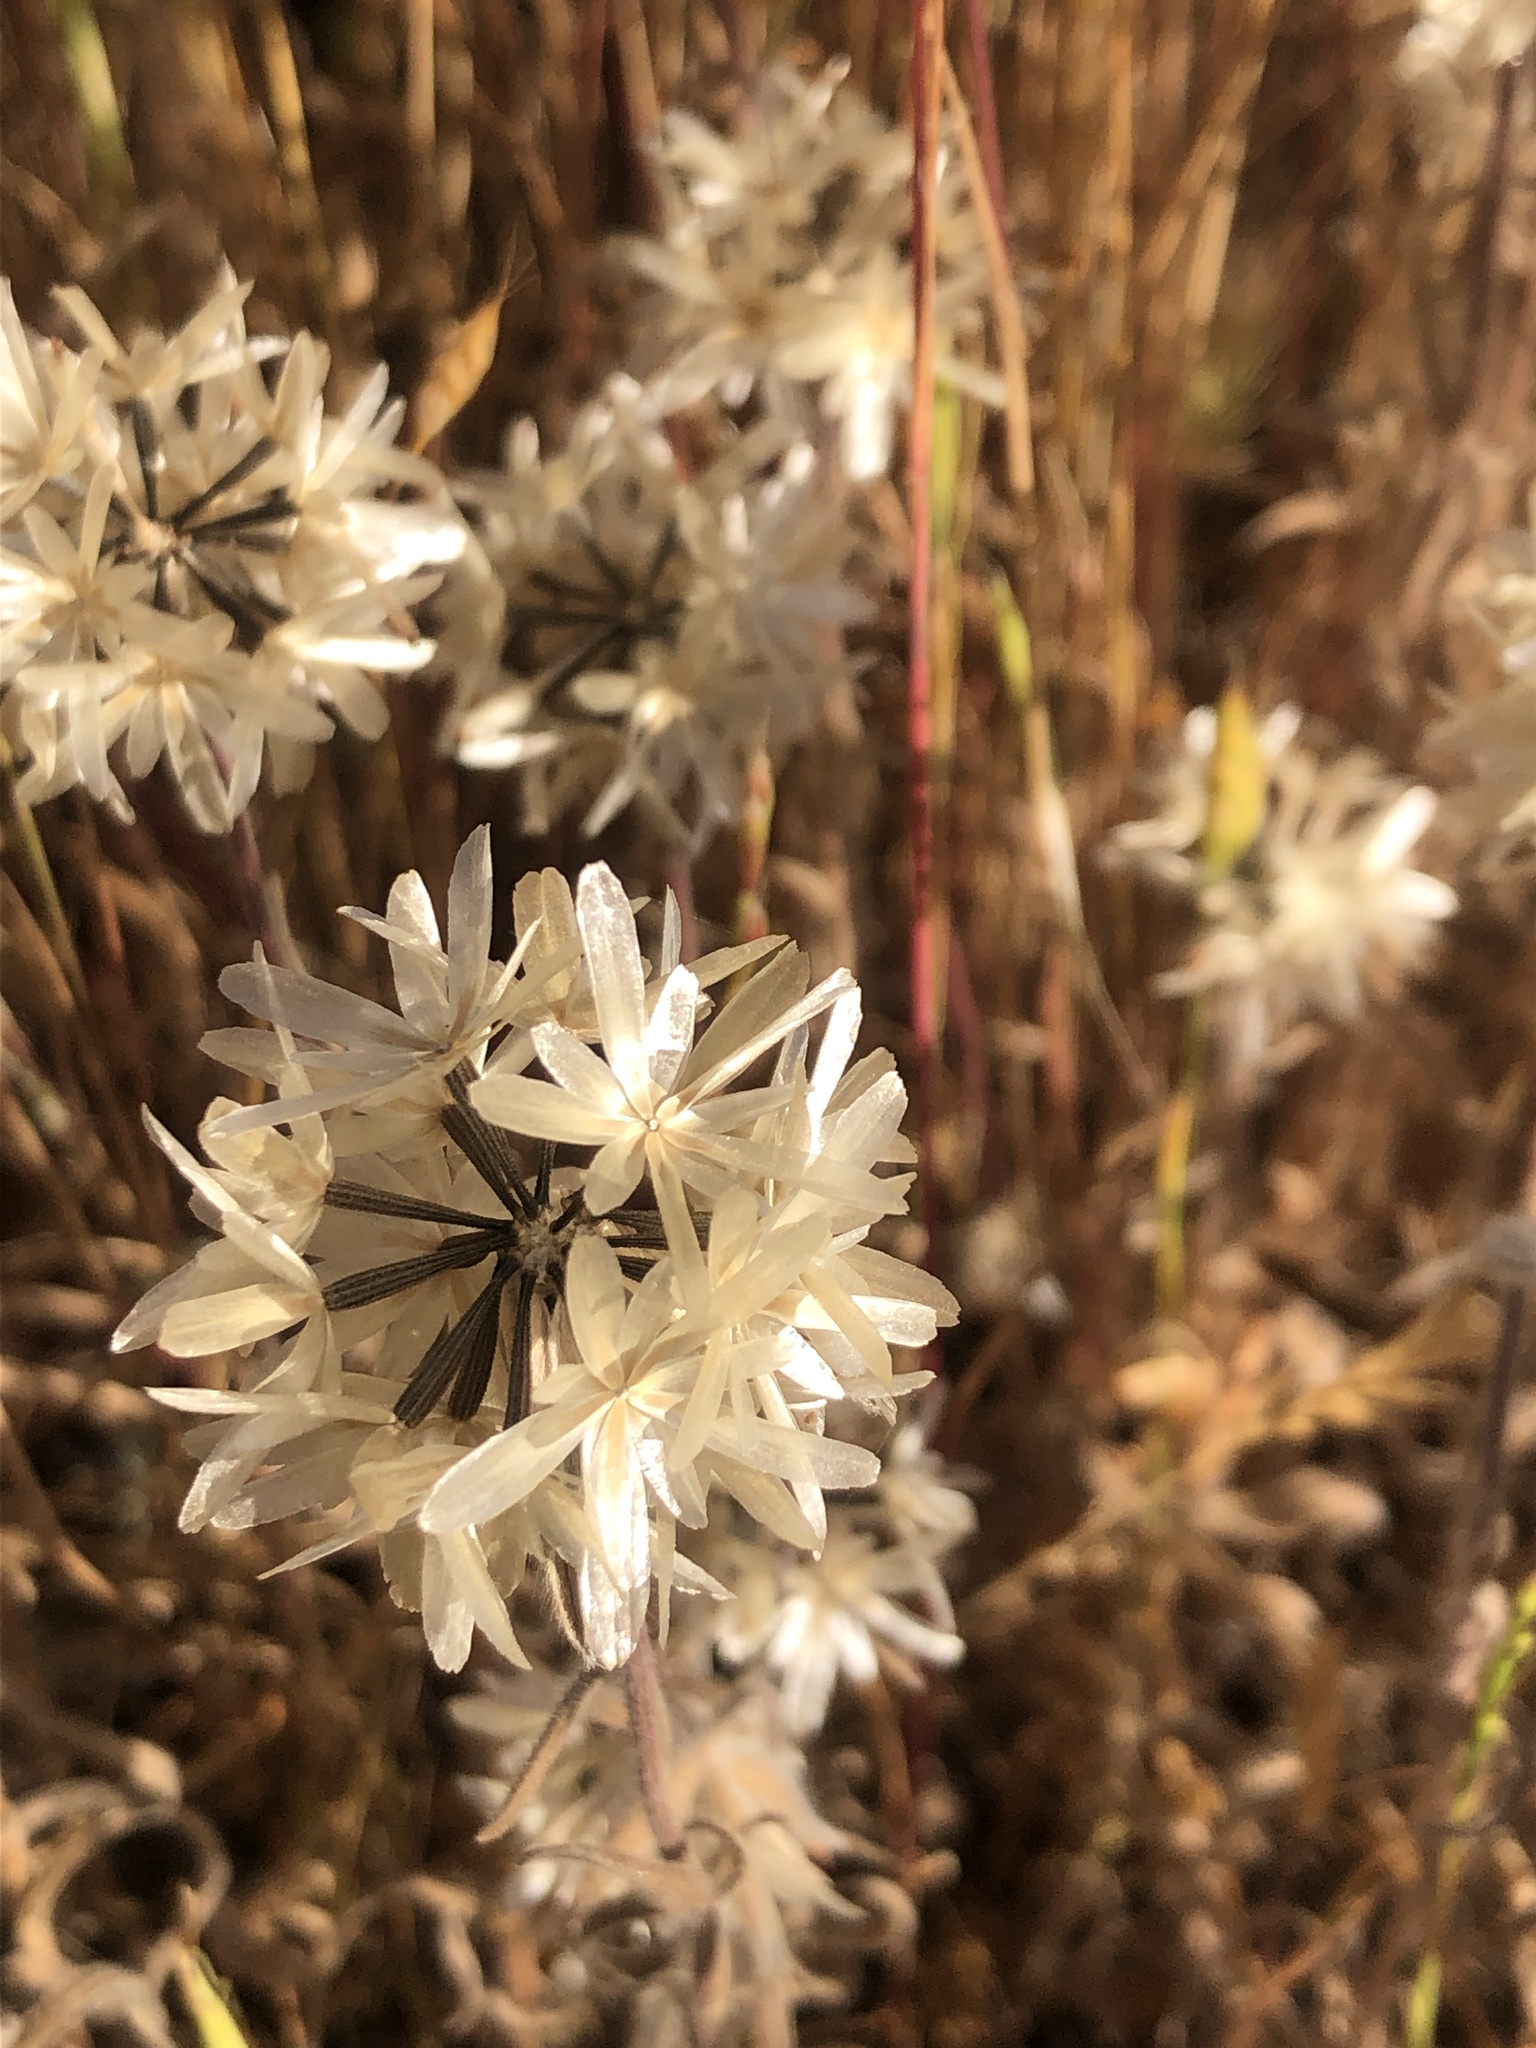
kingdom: Plantae
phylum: Tracheophyta
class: Magnoliopsida
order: Asterales
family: Asteraceae
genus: Achyrachaena
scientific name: Achyrachaena mollis
